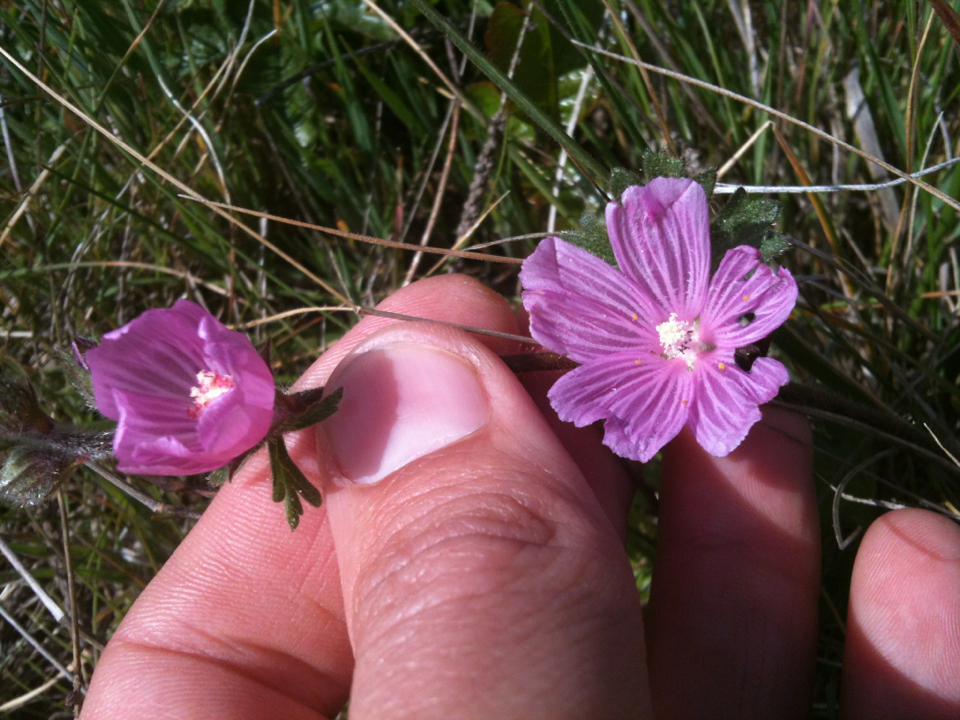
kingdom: Plantae
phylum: Tracheophyta
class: Magnoliopsida
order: Malvales
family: Malvaceae
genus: Sidalcea
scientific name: Sidalcea malviflora
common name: Greek mallow
